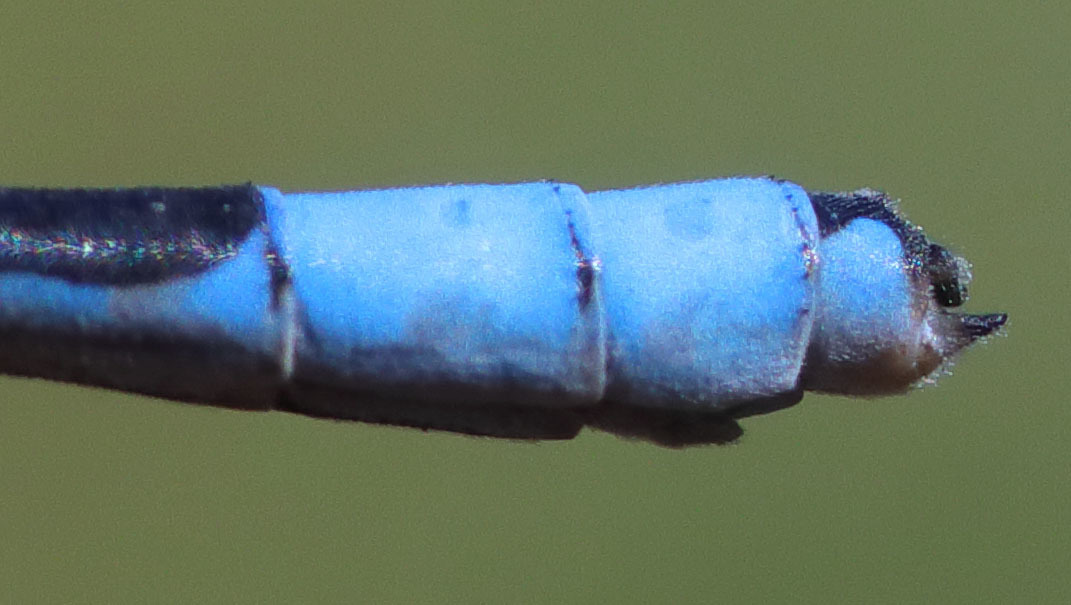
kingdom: Animalia
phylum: Arthropoda
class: Insecta
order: Odonata
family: Coenagrionidae
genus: Enallagma
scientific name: Enallagma annexum
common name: Northern bluet
